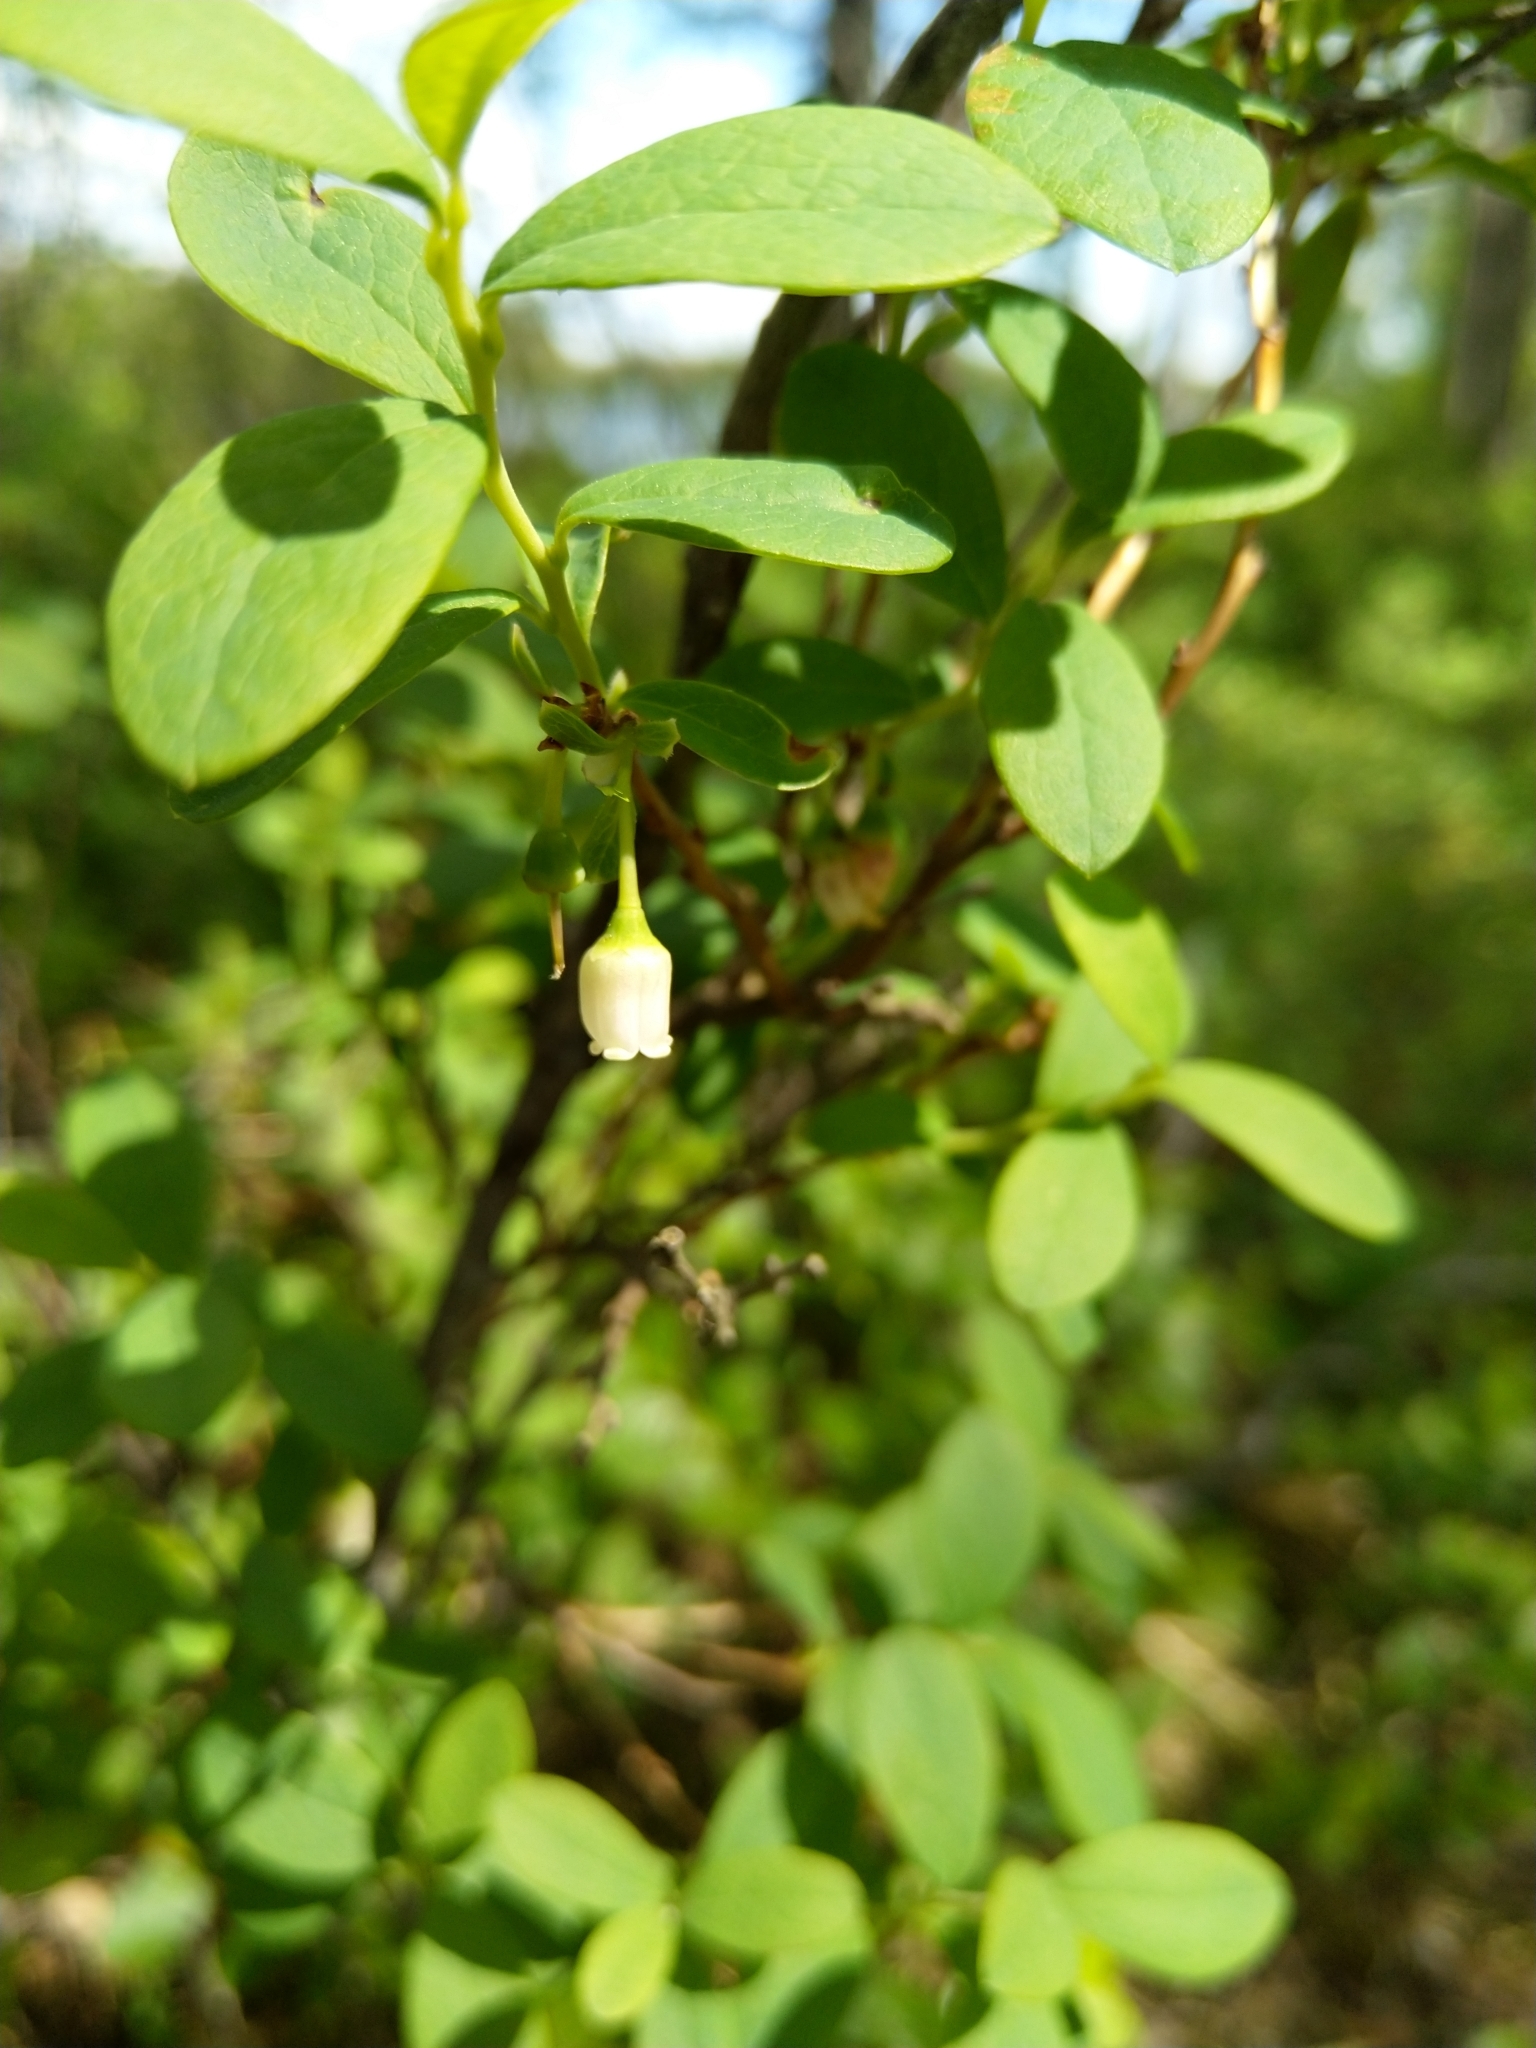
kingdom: Plantae
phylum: Tracheophyta
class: Magnoliopsida
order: Ericales
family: Ericaceae
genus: Vaccinium
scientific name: Vaccinium uliginosum
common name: Bog bilberry
